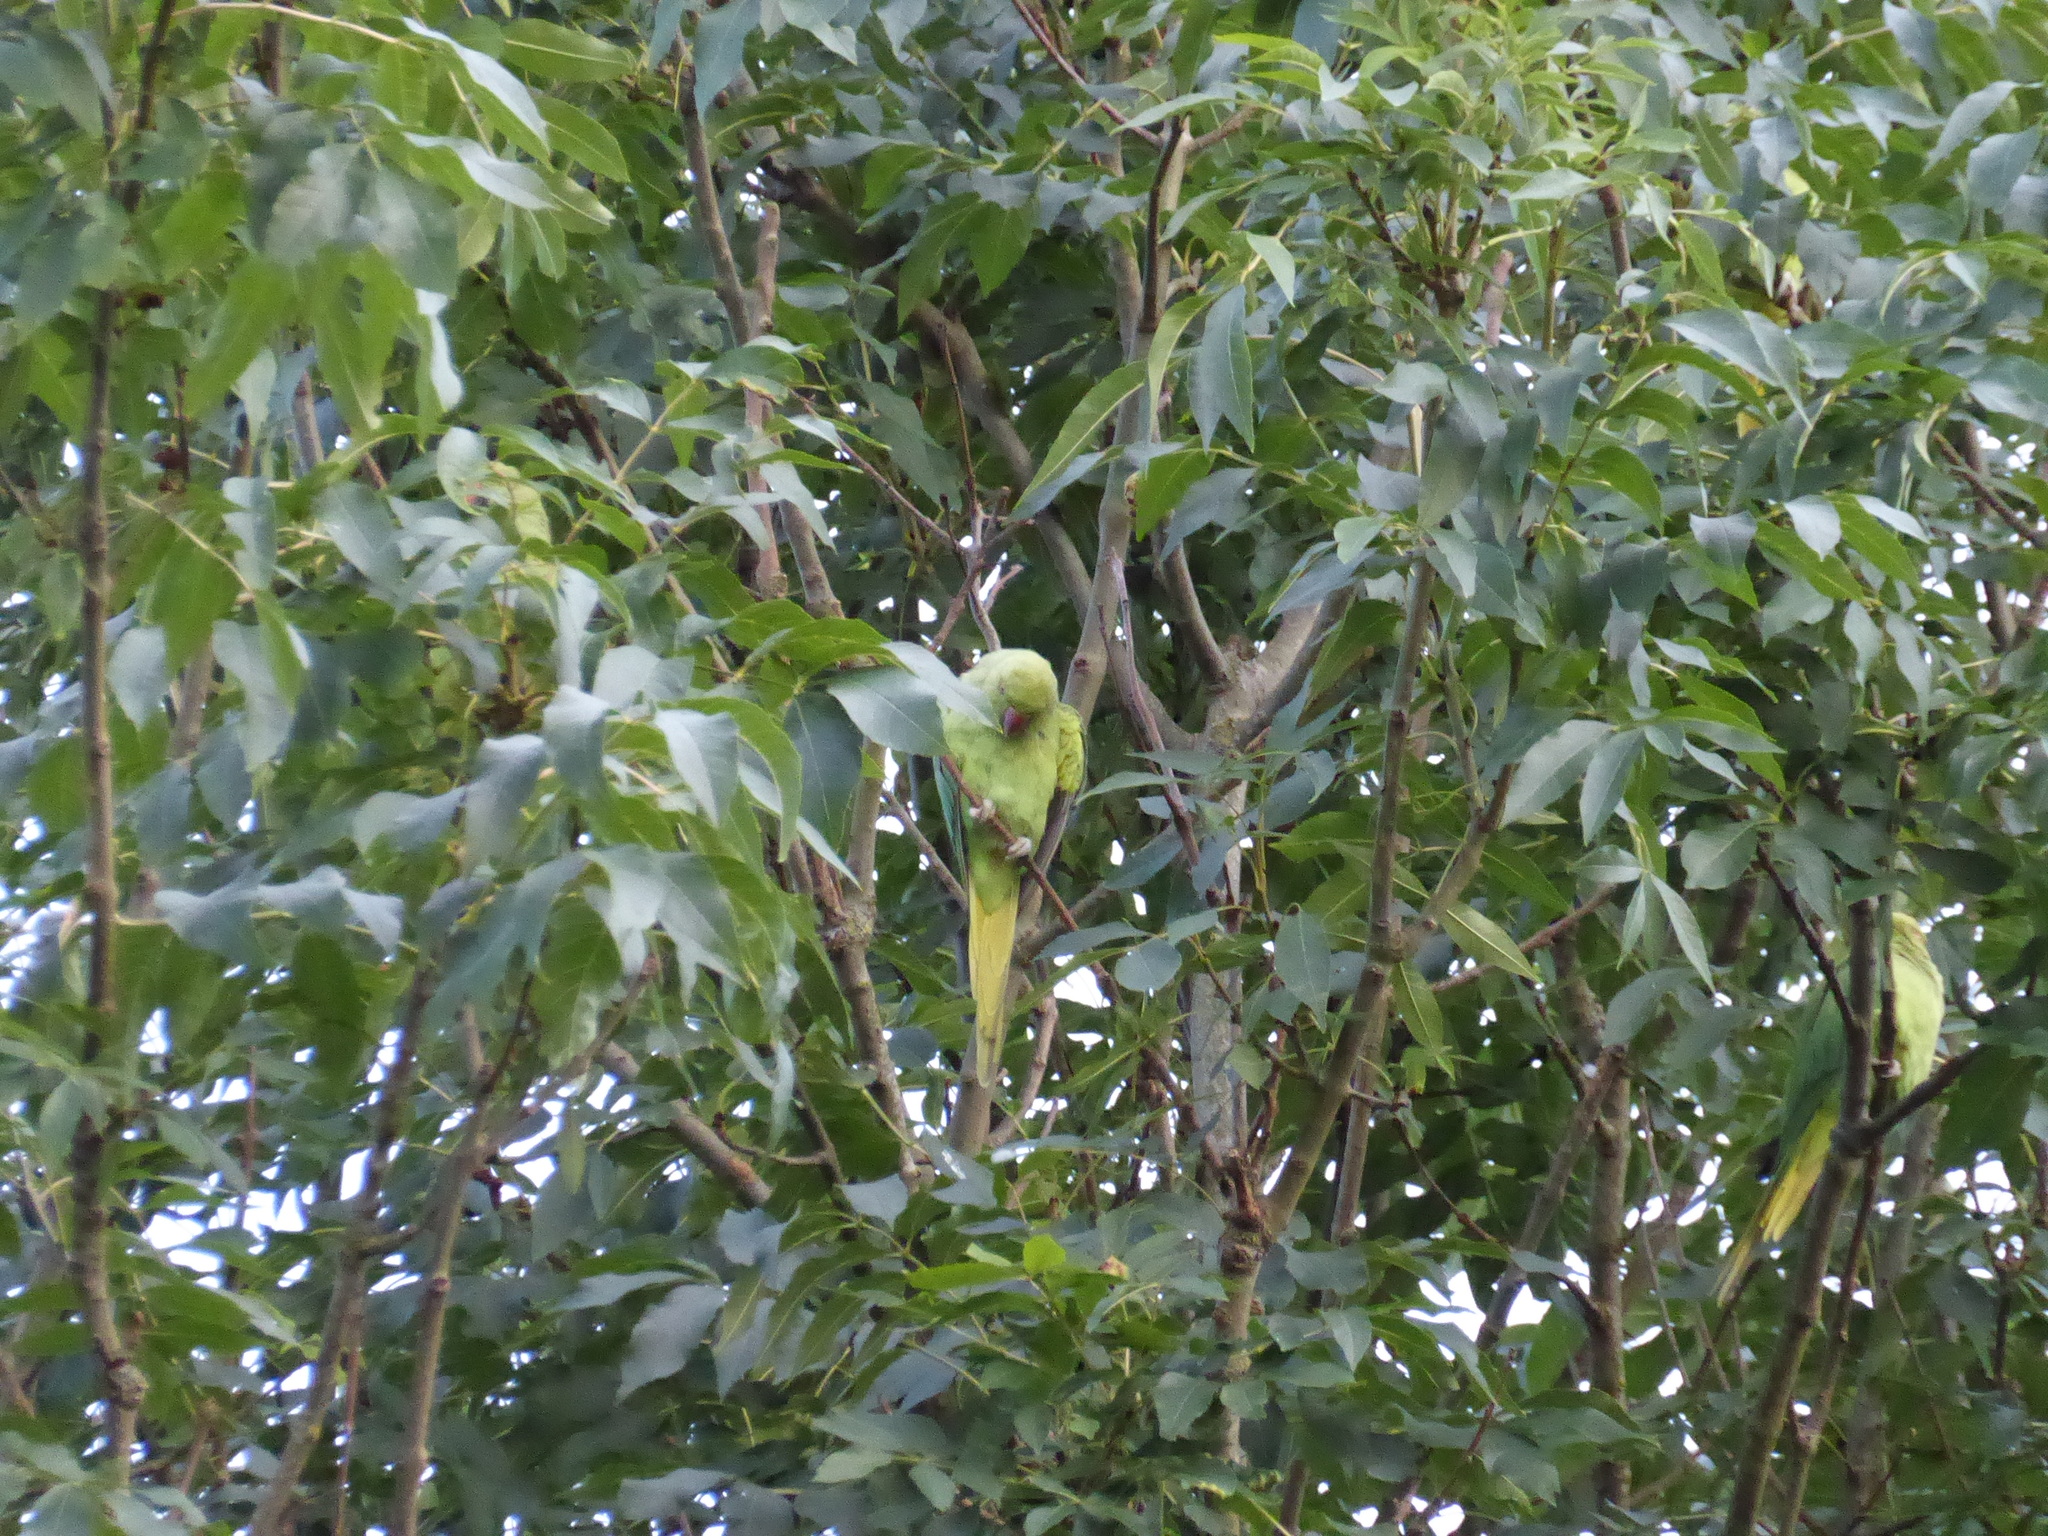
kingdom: Animalia
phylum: Chordata
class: Aves
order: Psittaciformes
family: Psittacidae
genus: Psittacula
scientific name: Psittacula krameri
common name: Rose-ringed parakeet
